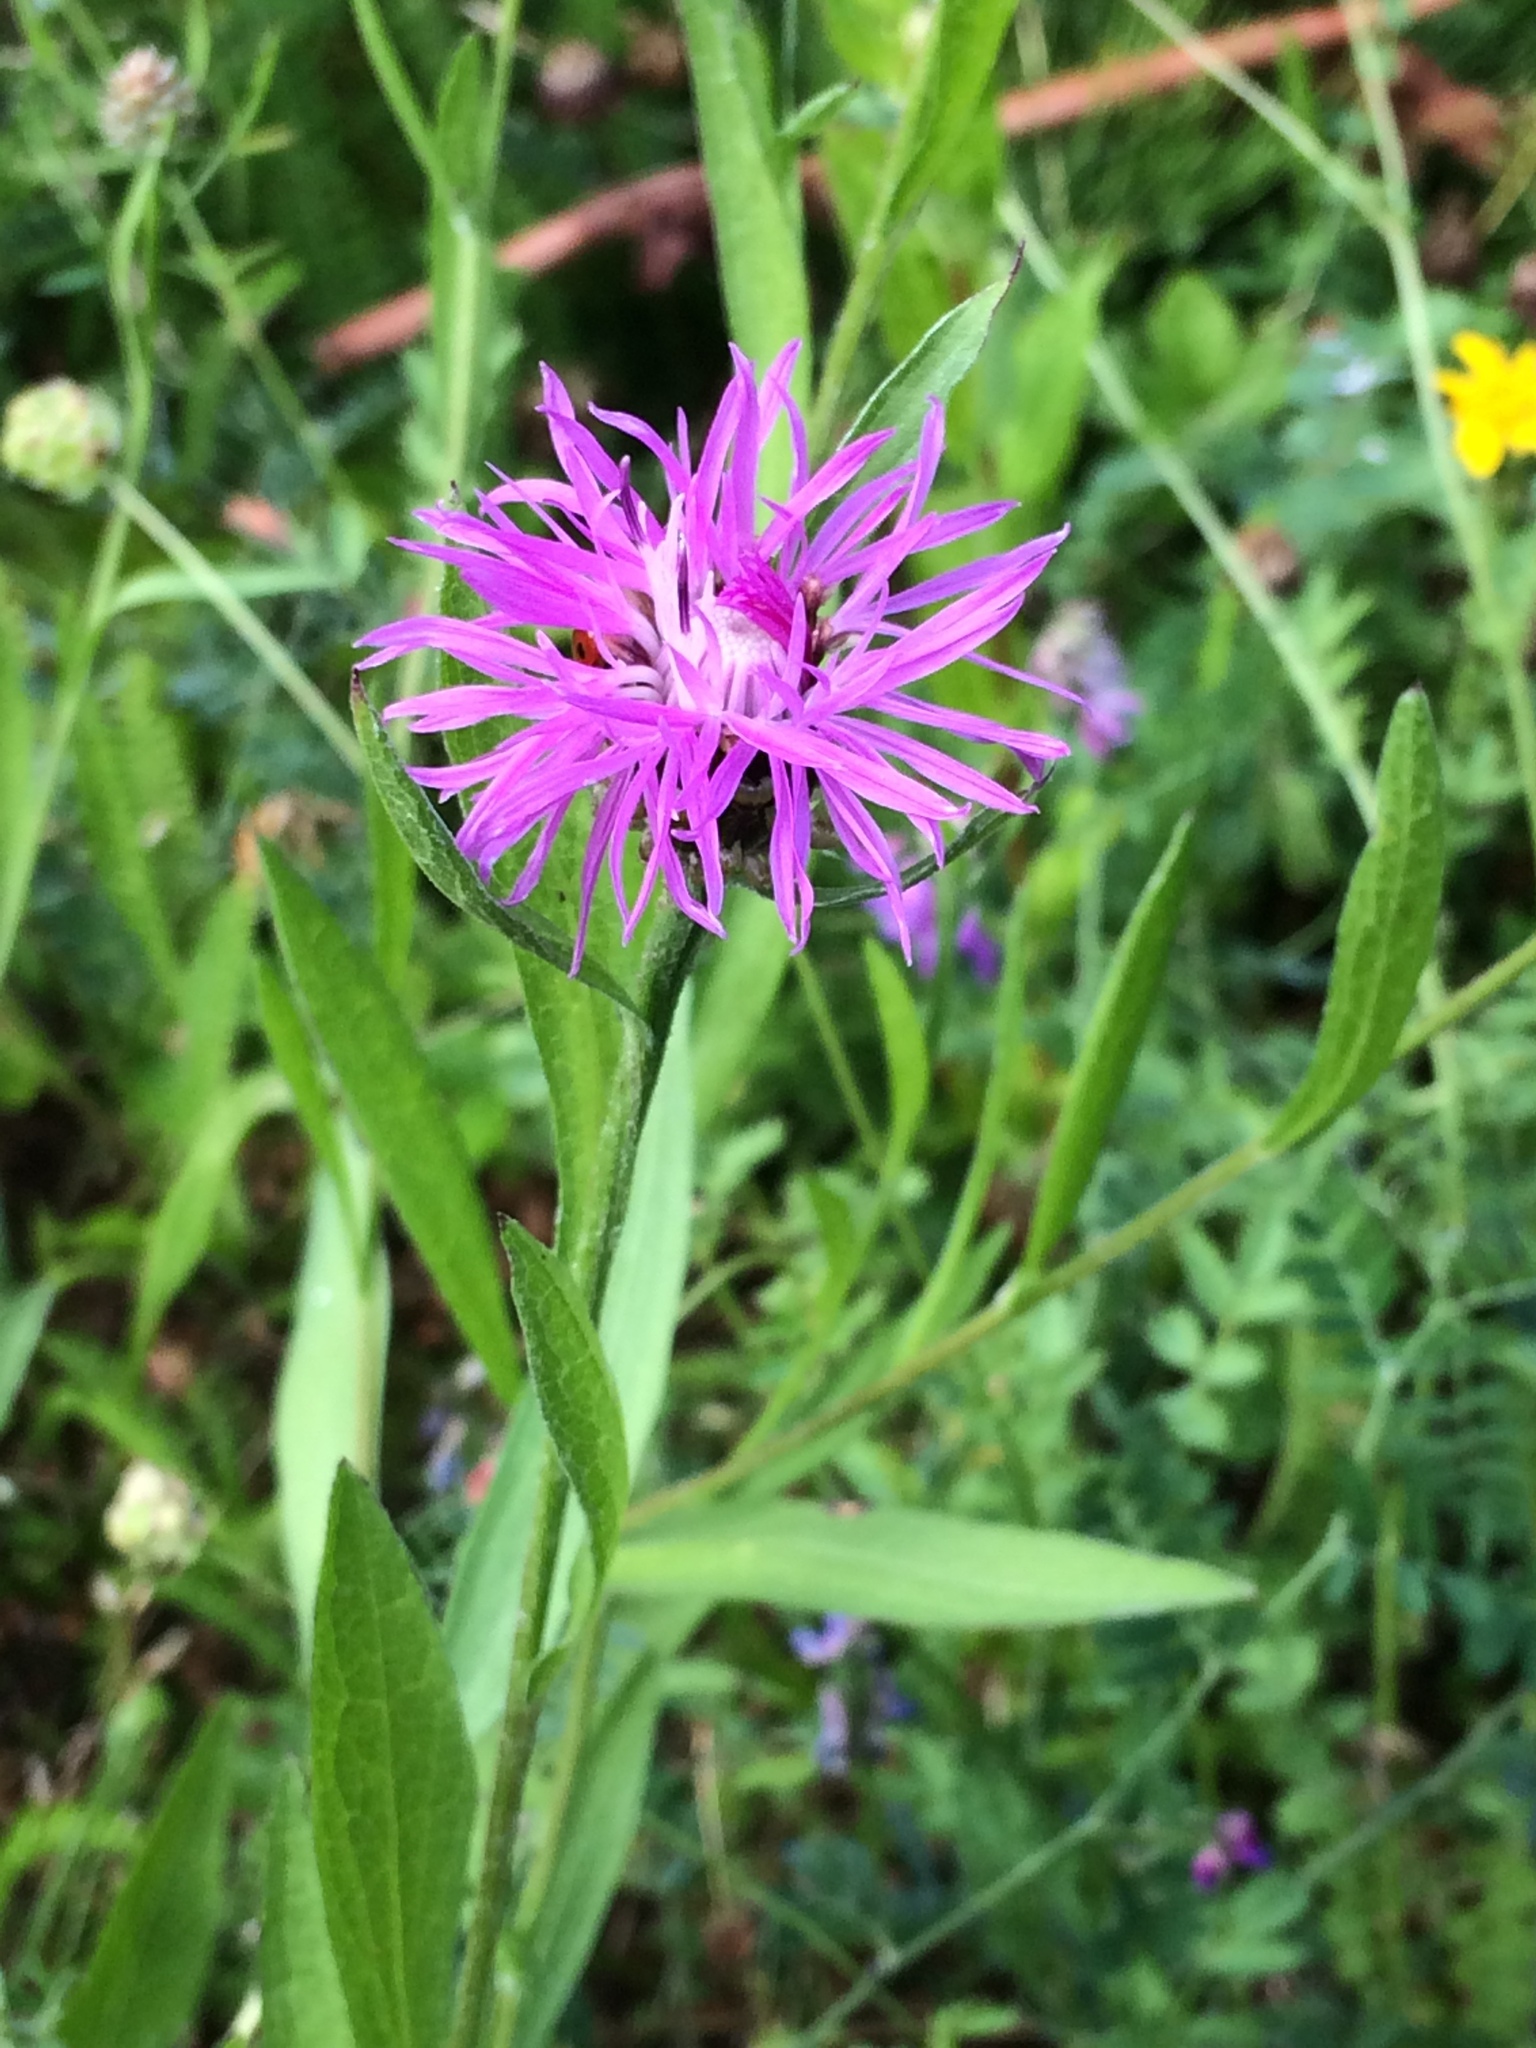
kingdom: Plantae
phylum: Tracheophyta
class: Magnoliopsida
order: Asterales
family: Asteraceae
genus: Centaurea
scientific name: Centaurea jacea
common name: Brown knapweed
